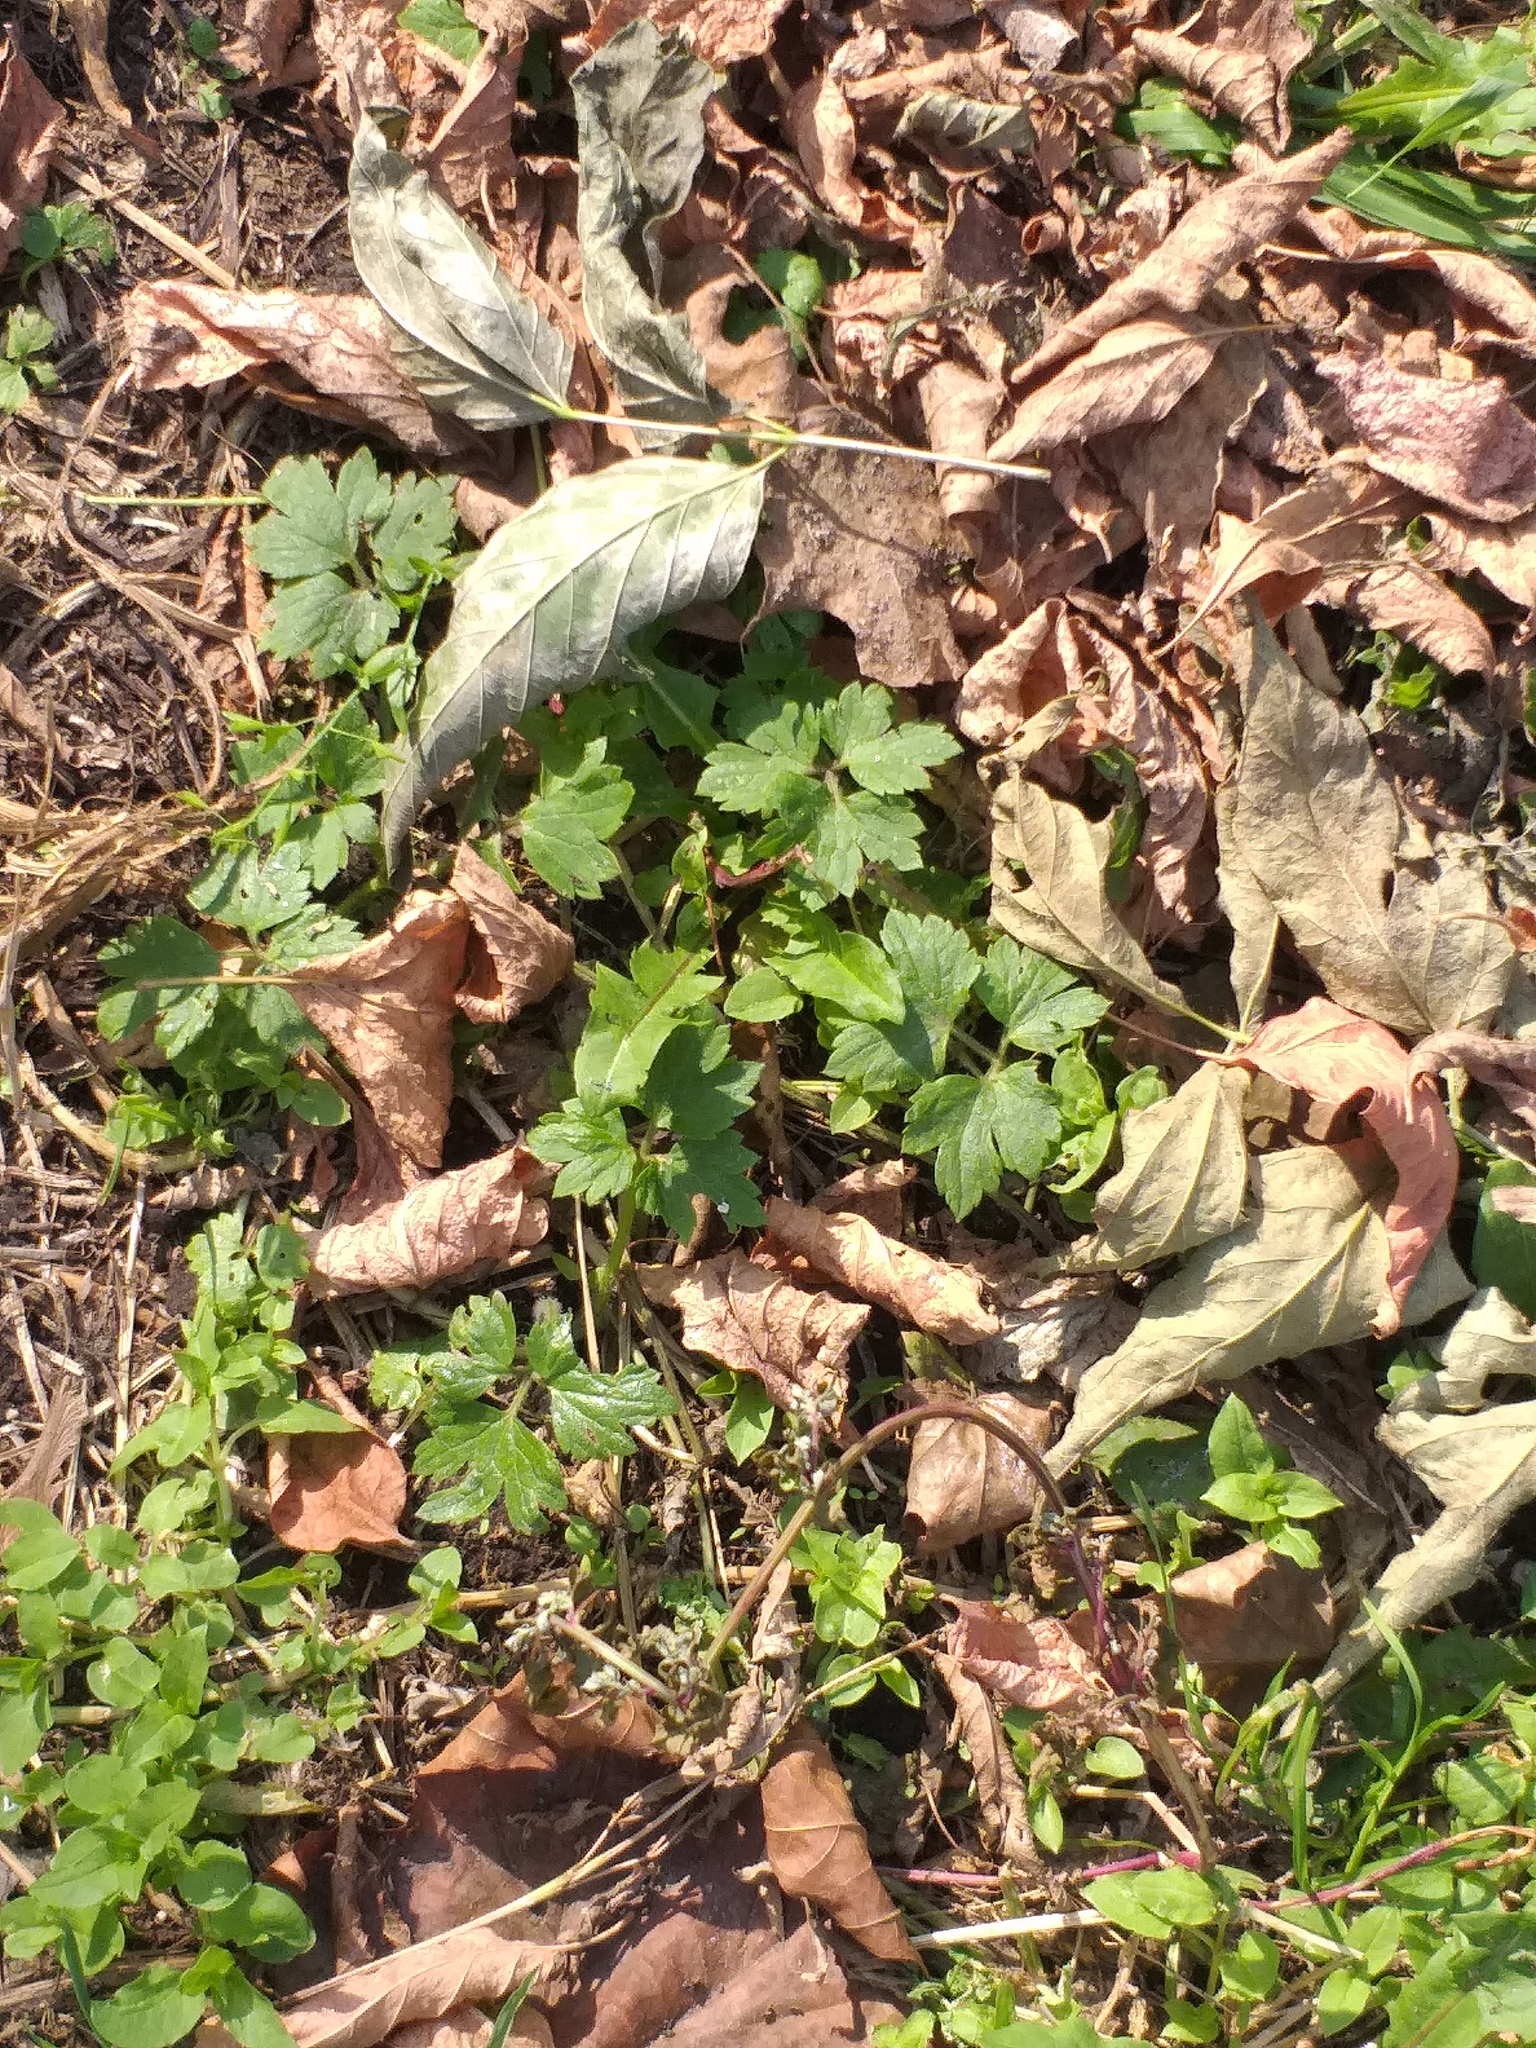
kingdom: Plantae
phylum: Tracheophyta
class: Magnoliopsida
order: Ranunculales
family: Ranunculaceae
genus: Ranunculus
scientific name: Ranunculus repens
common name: Creeping buttercup
